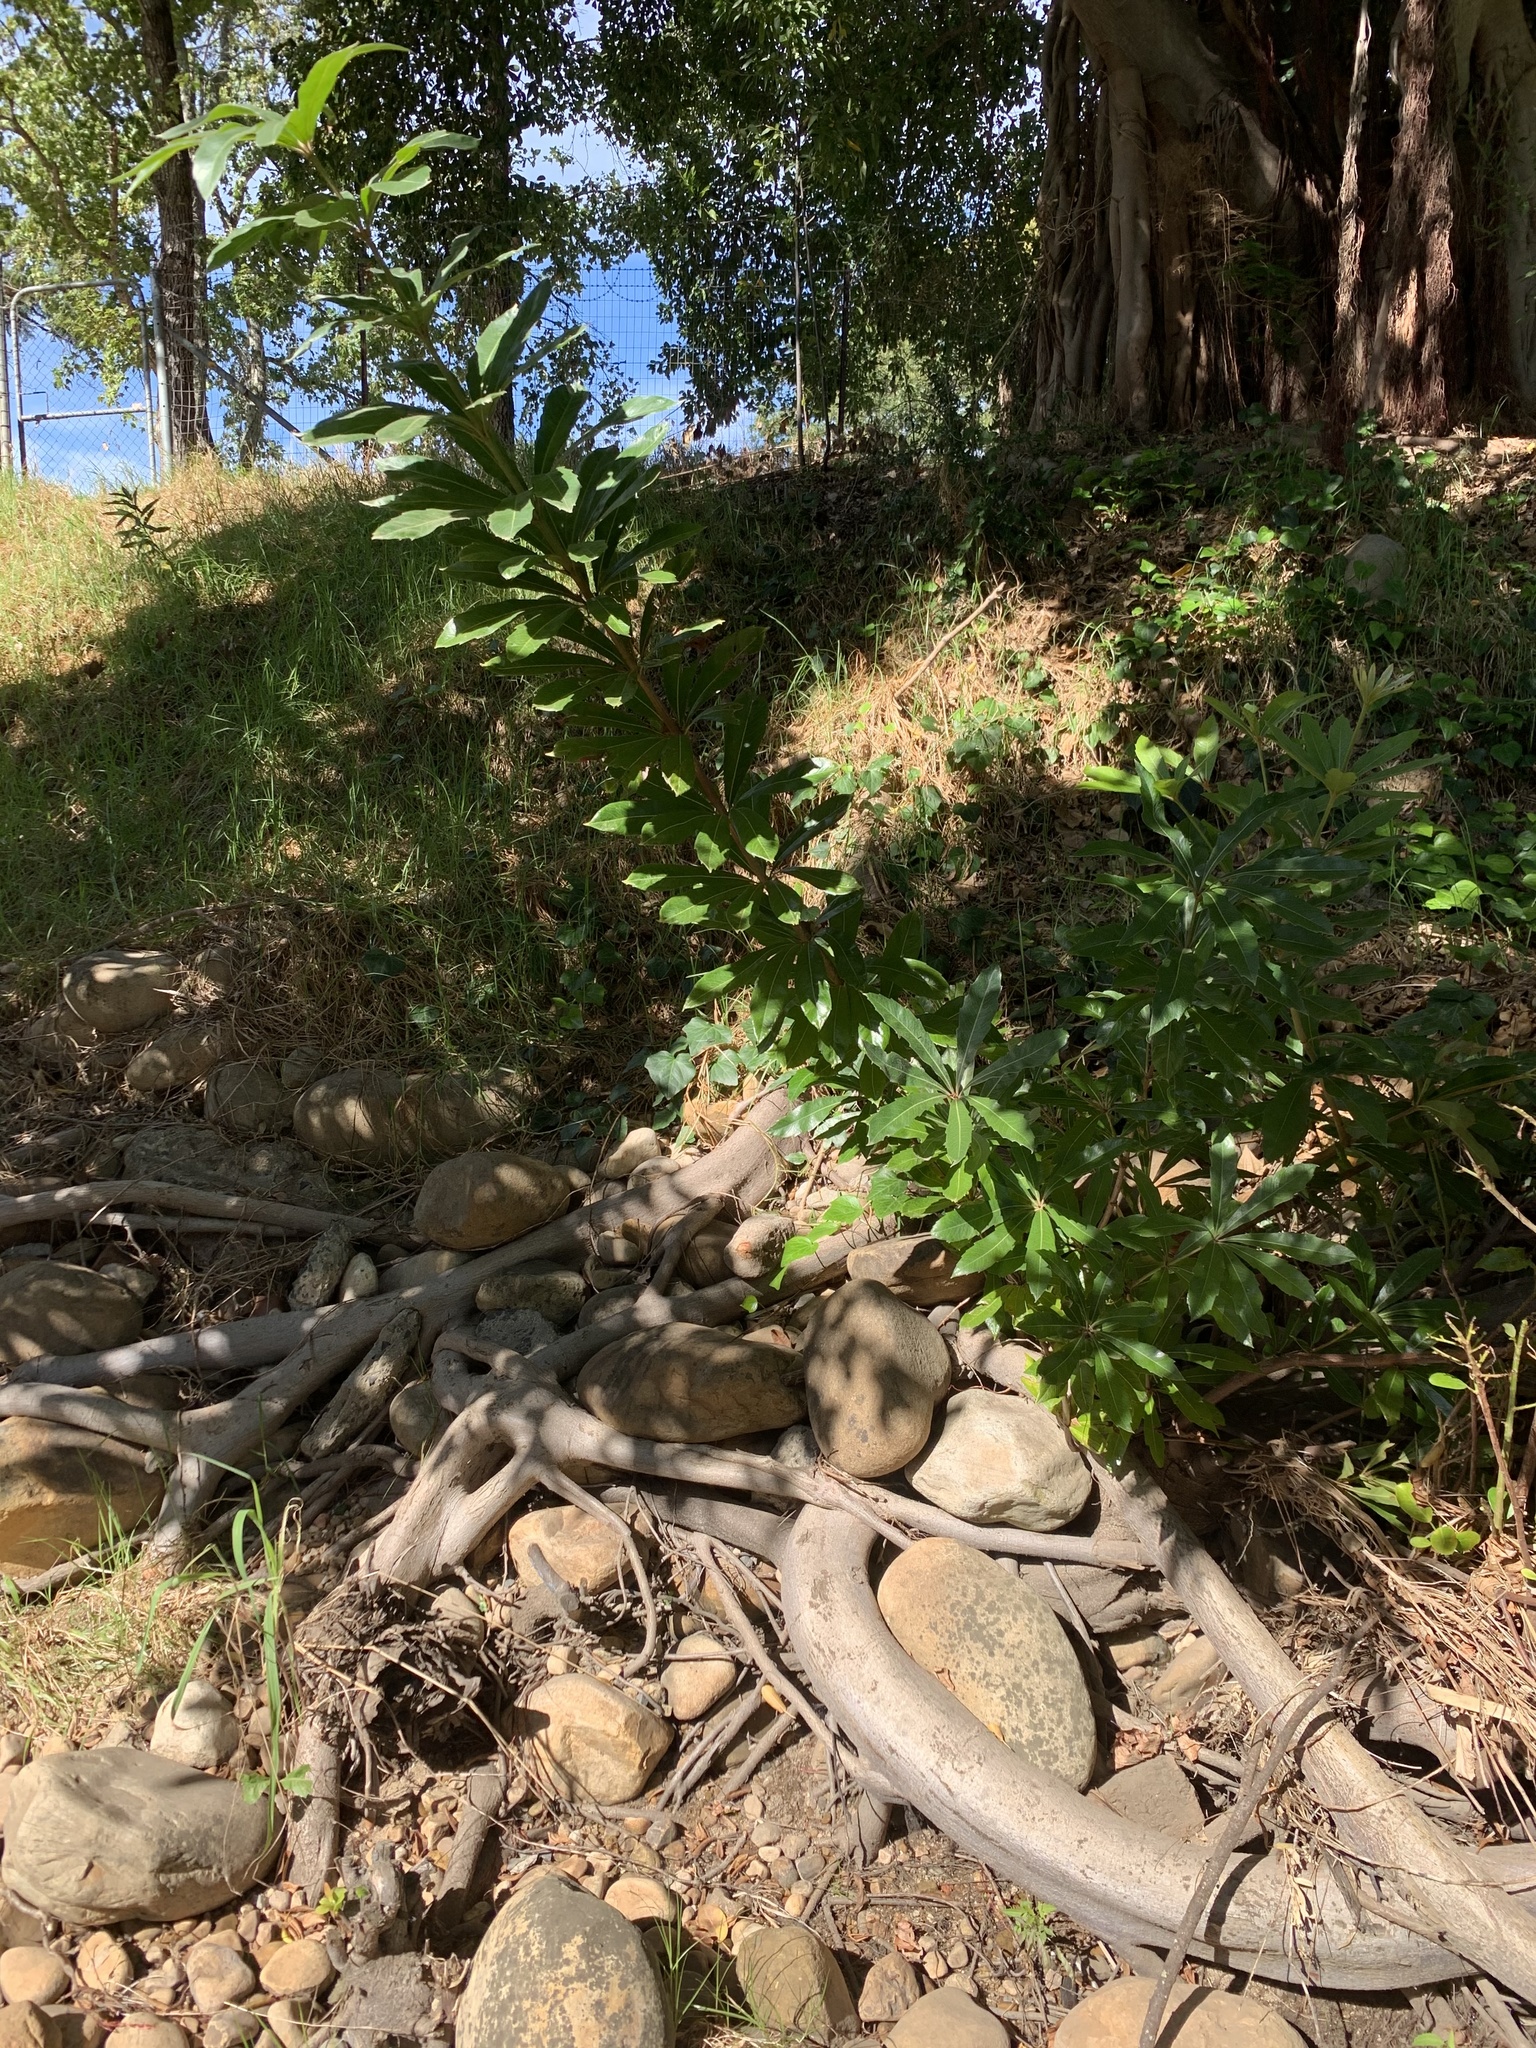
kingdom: Plantae
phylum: Tracheophyta
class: Magnoliopsida
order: Proteales
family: Proteaceae
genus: Brabejum
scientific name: Brabejum stellatifolium
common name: Wild almond
